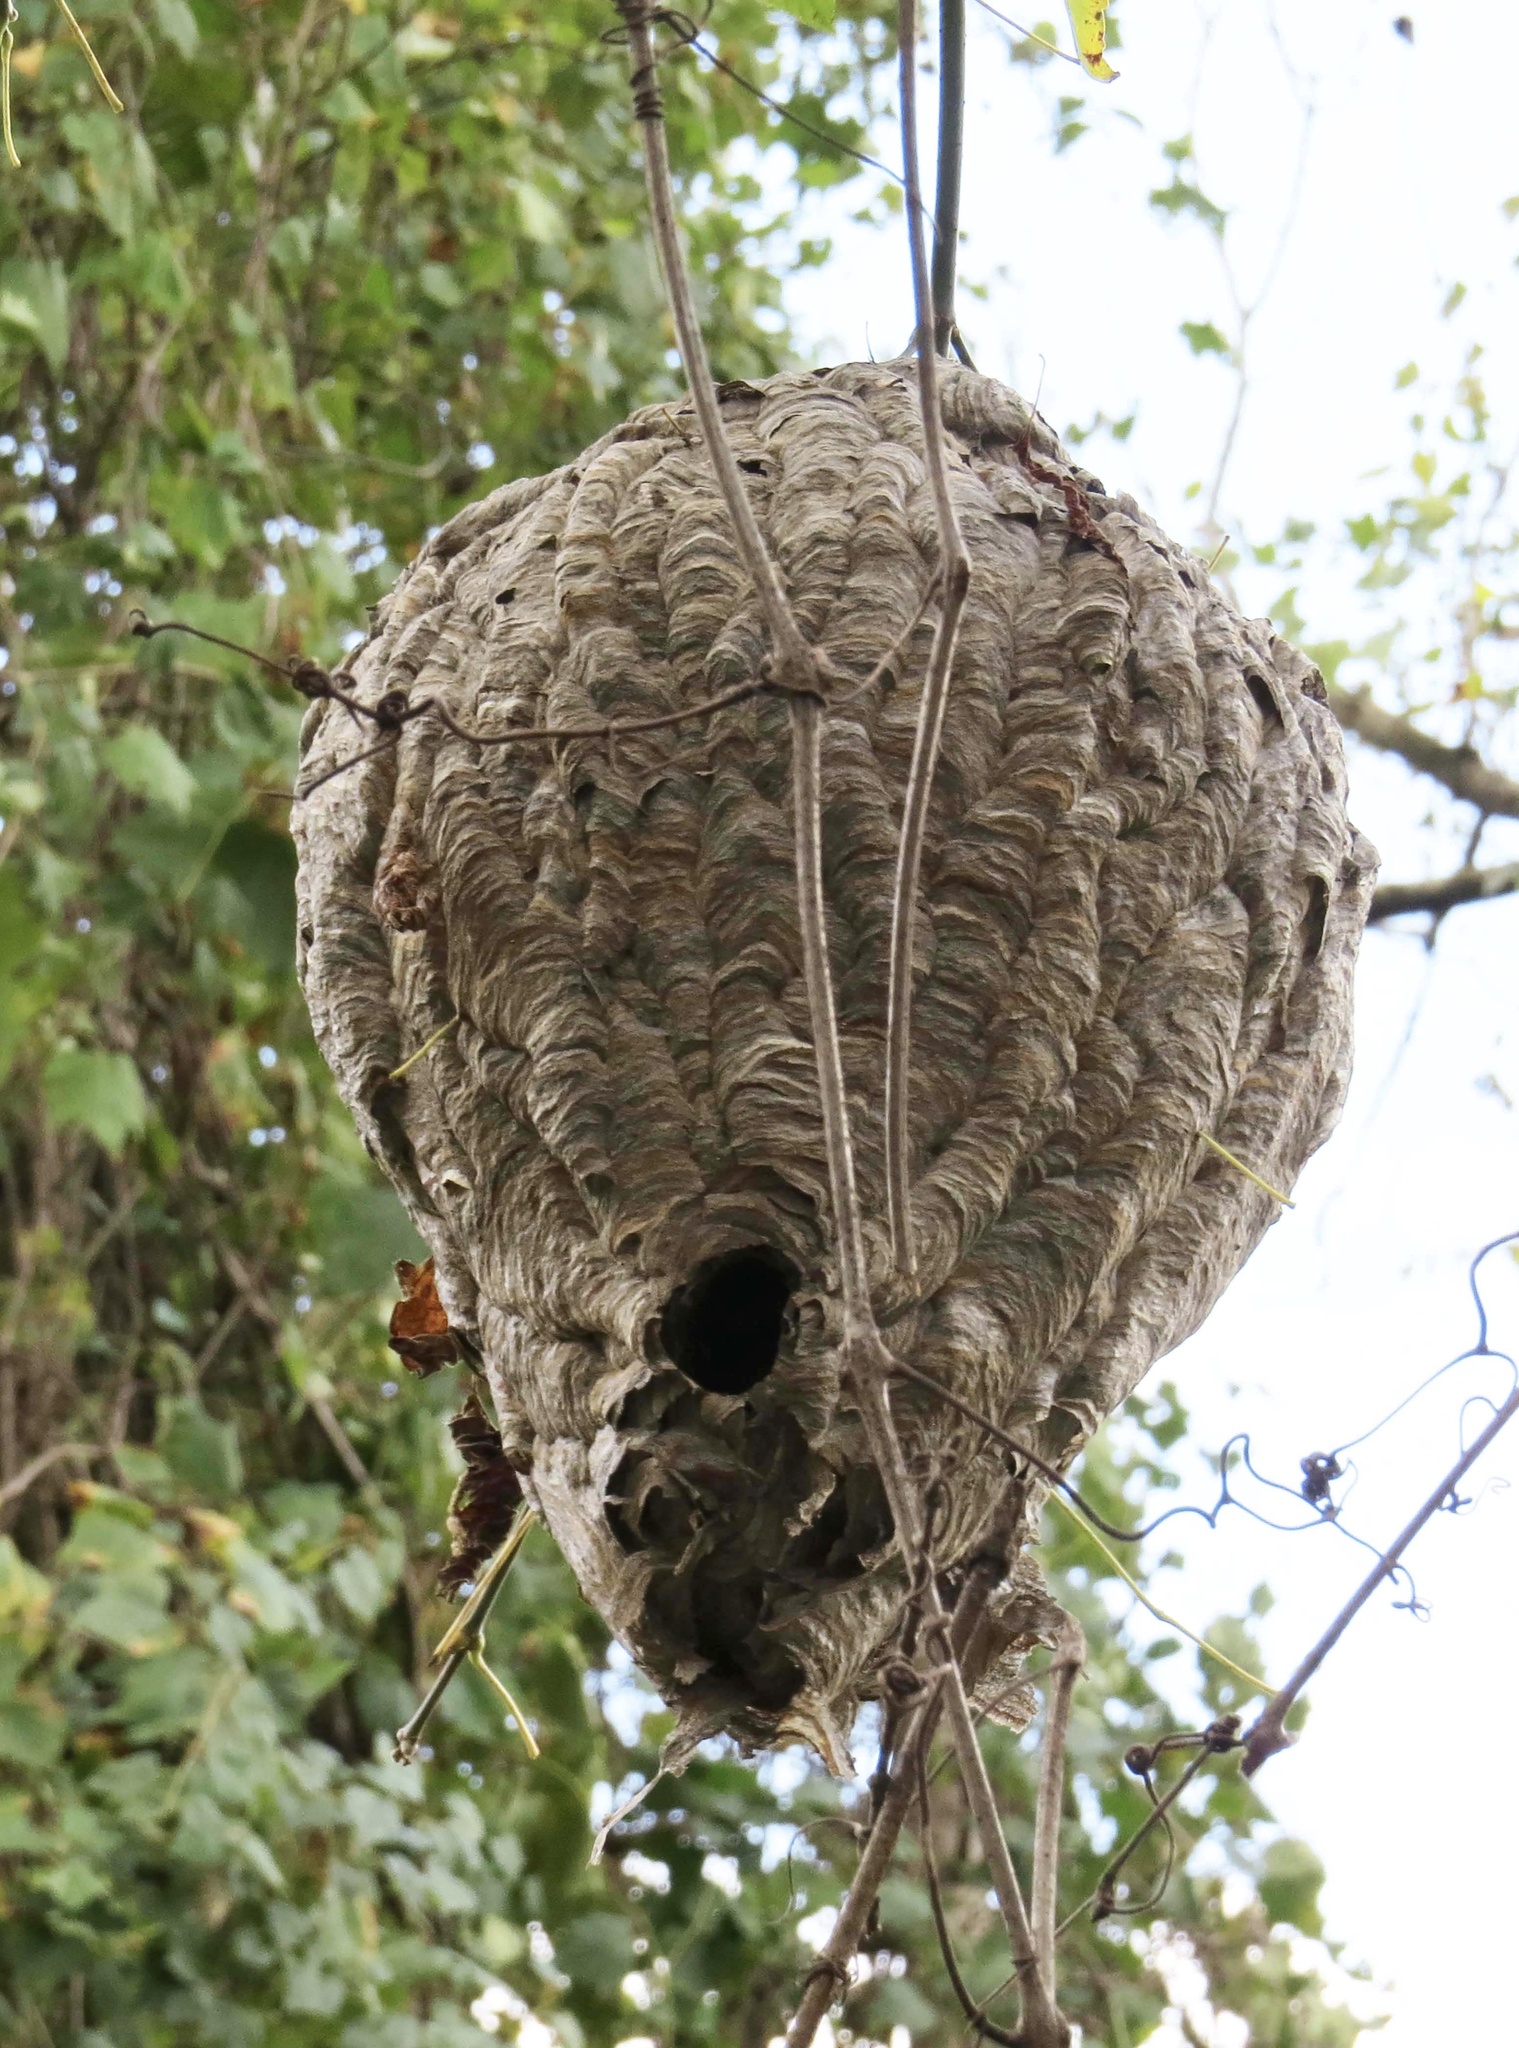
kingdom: Animalia
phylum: Arthropoda
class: Insecta
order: Hymenoptera
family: Vespidae
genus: Dolichovespula
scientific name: Dolichovespula maculata
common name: Bald-faced hornet
